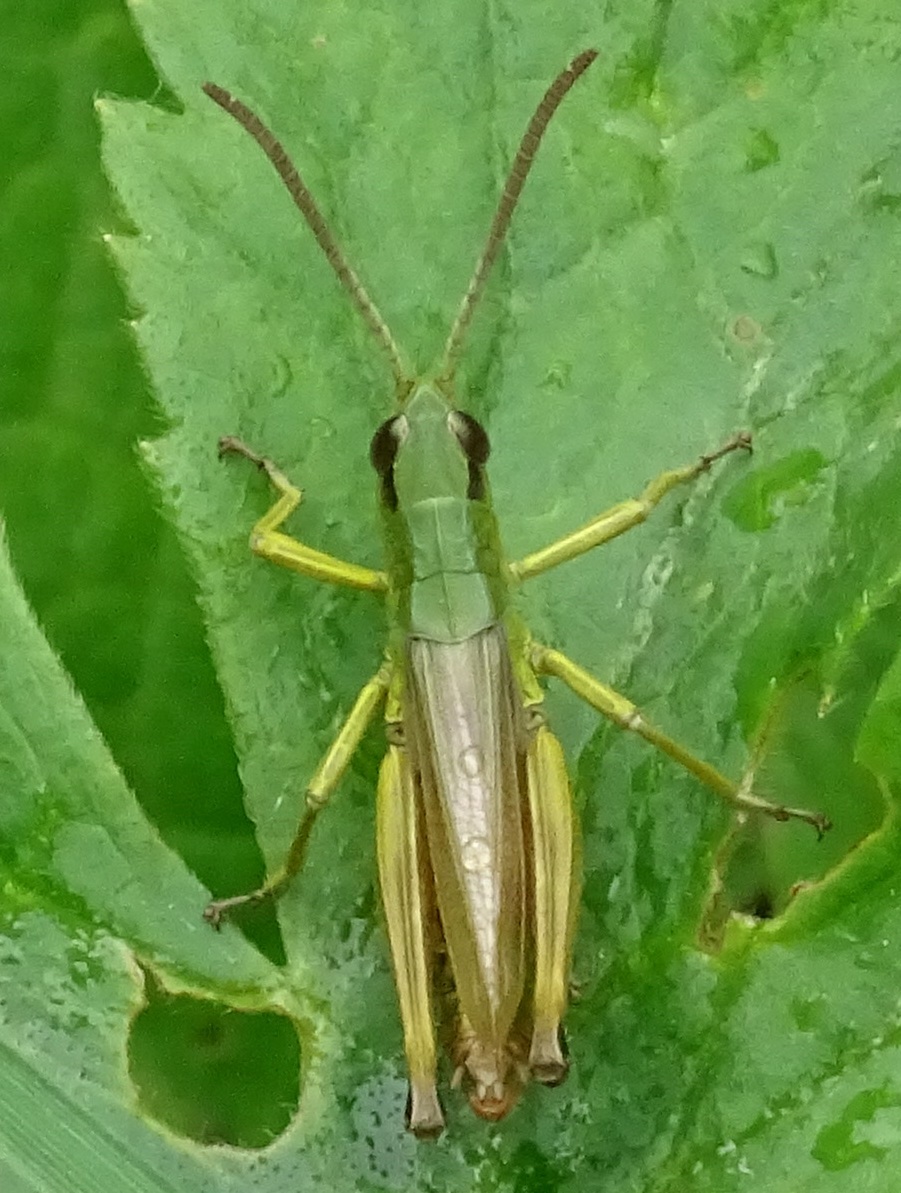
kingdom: Animalia
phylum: Arthropoda
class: Insecta
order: Orthoptera
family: Acrididae
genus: Pseudochorthippus
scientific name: Pseudochorthippus parallelus
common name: Meadow grasshopper
